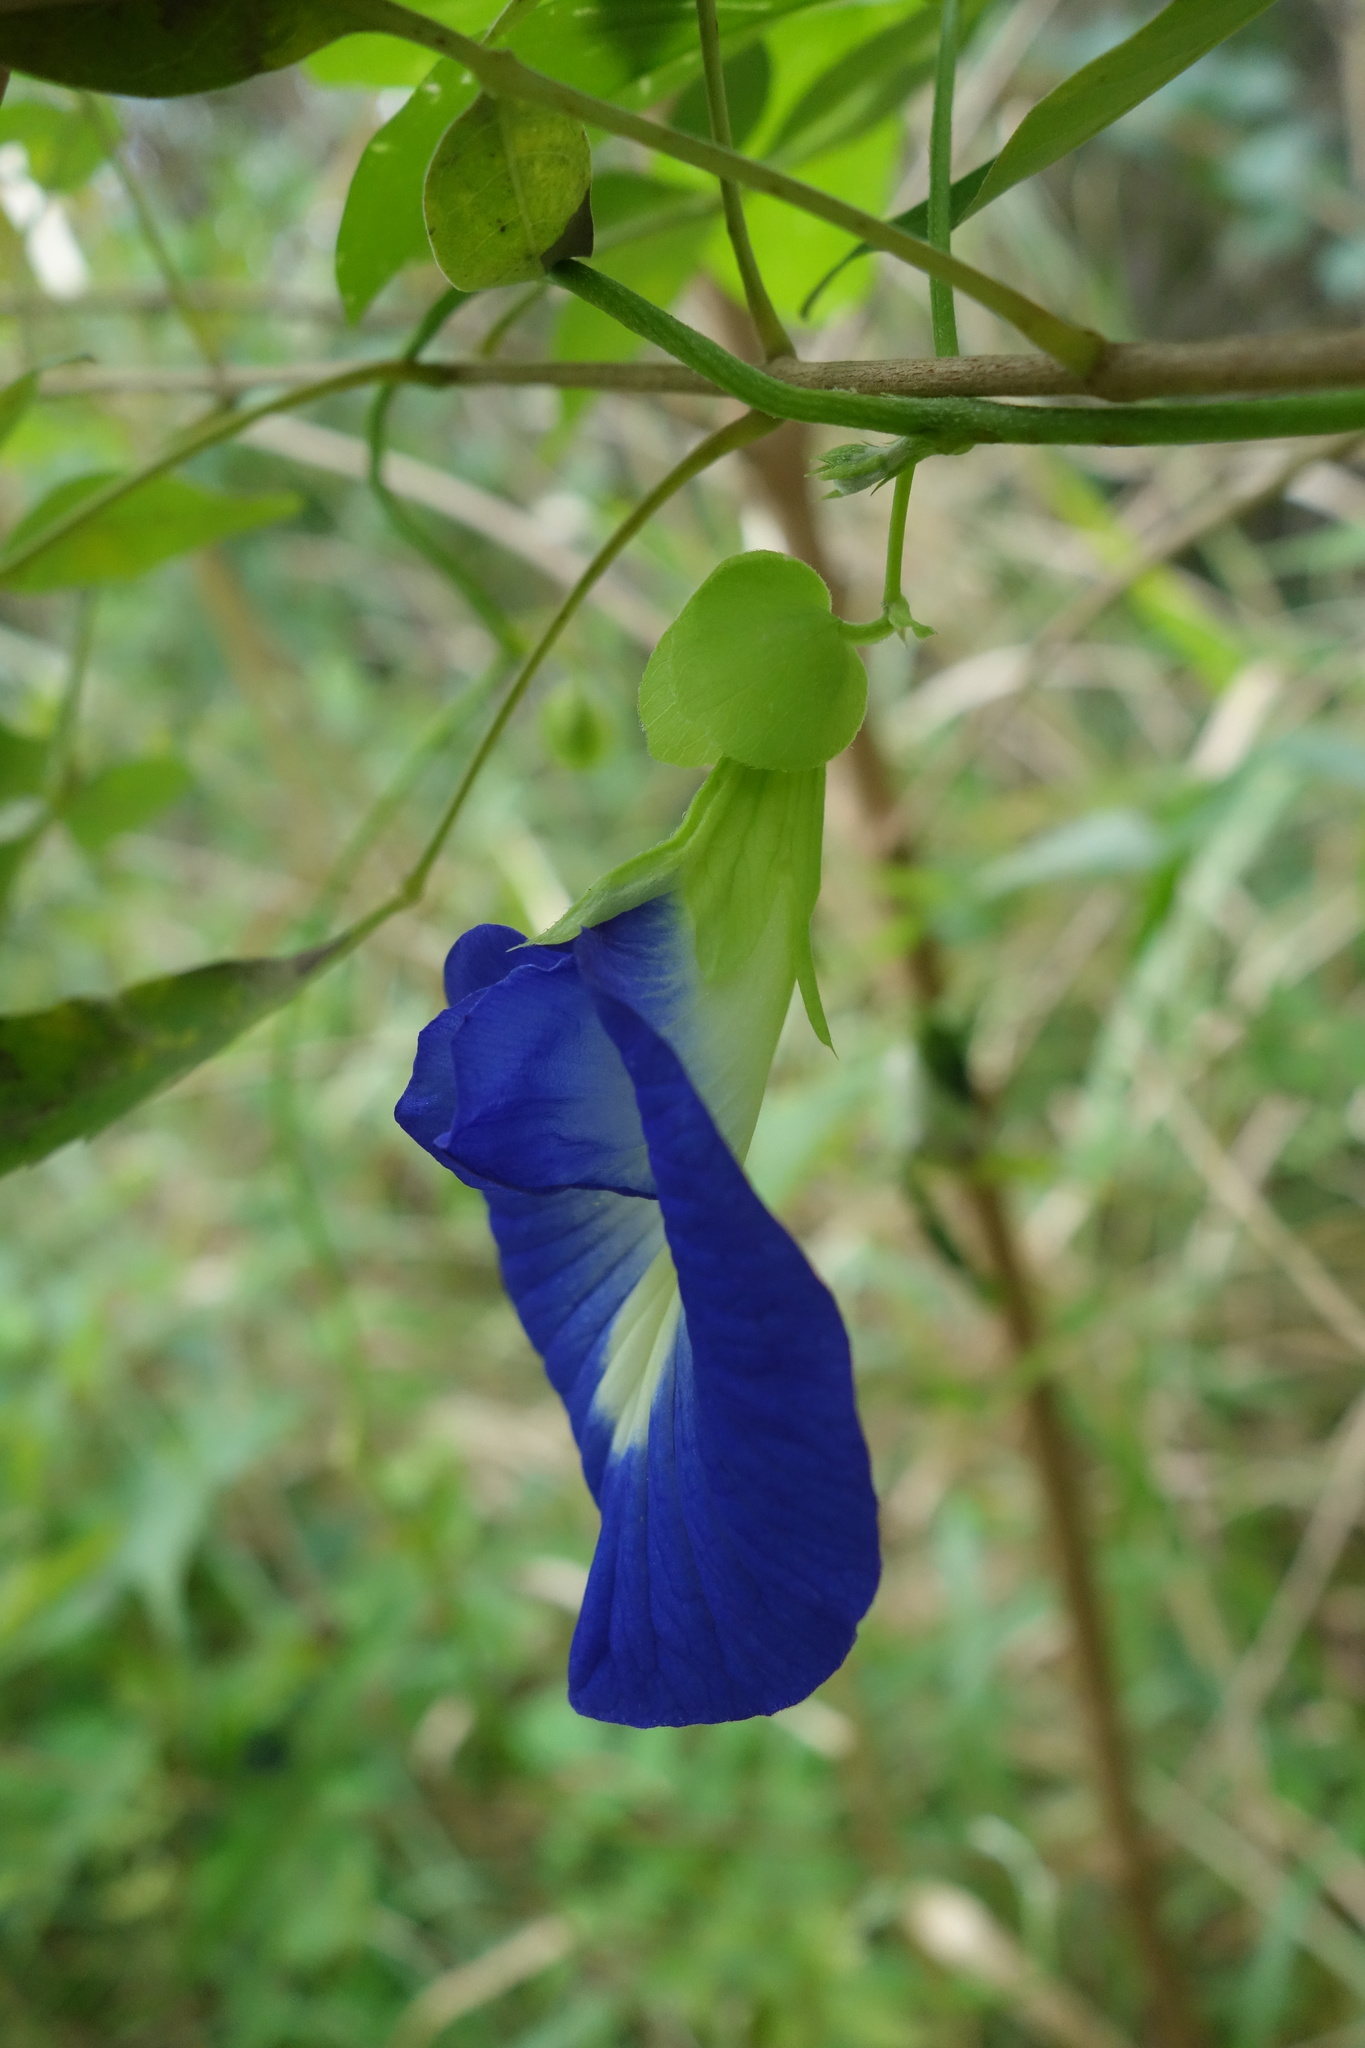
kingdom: Plantae
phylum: Tracheophyta
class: Magnoliopsida
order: Fabales
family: Fabaceae
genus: Clitoria
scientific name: Clitoria ternatea
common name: Asian pigeonwings
